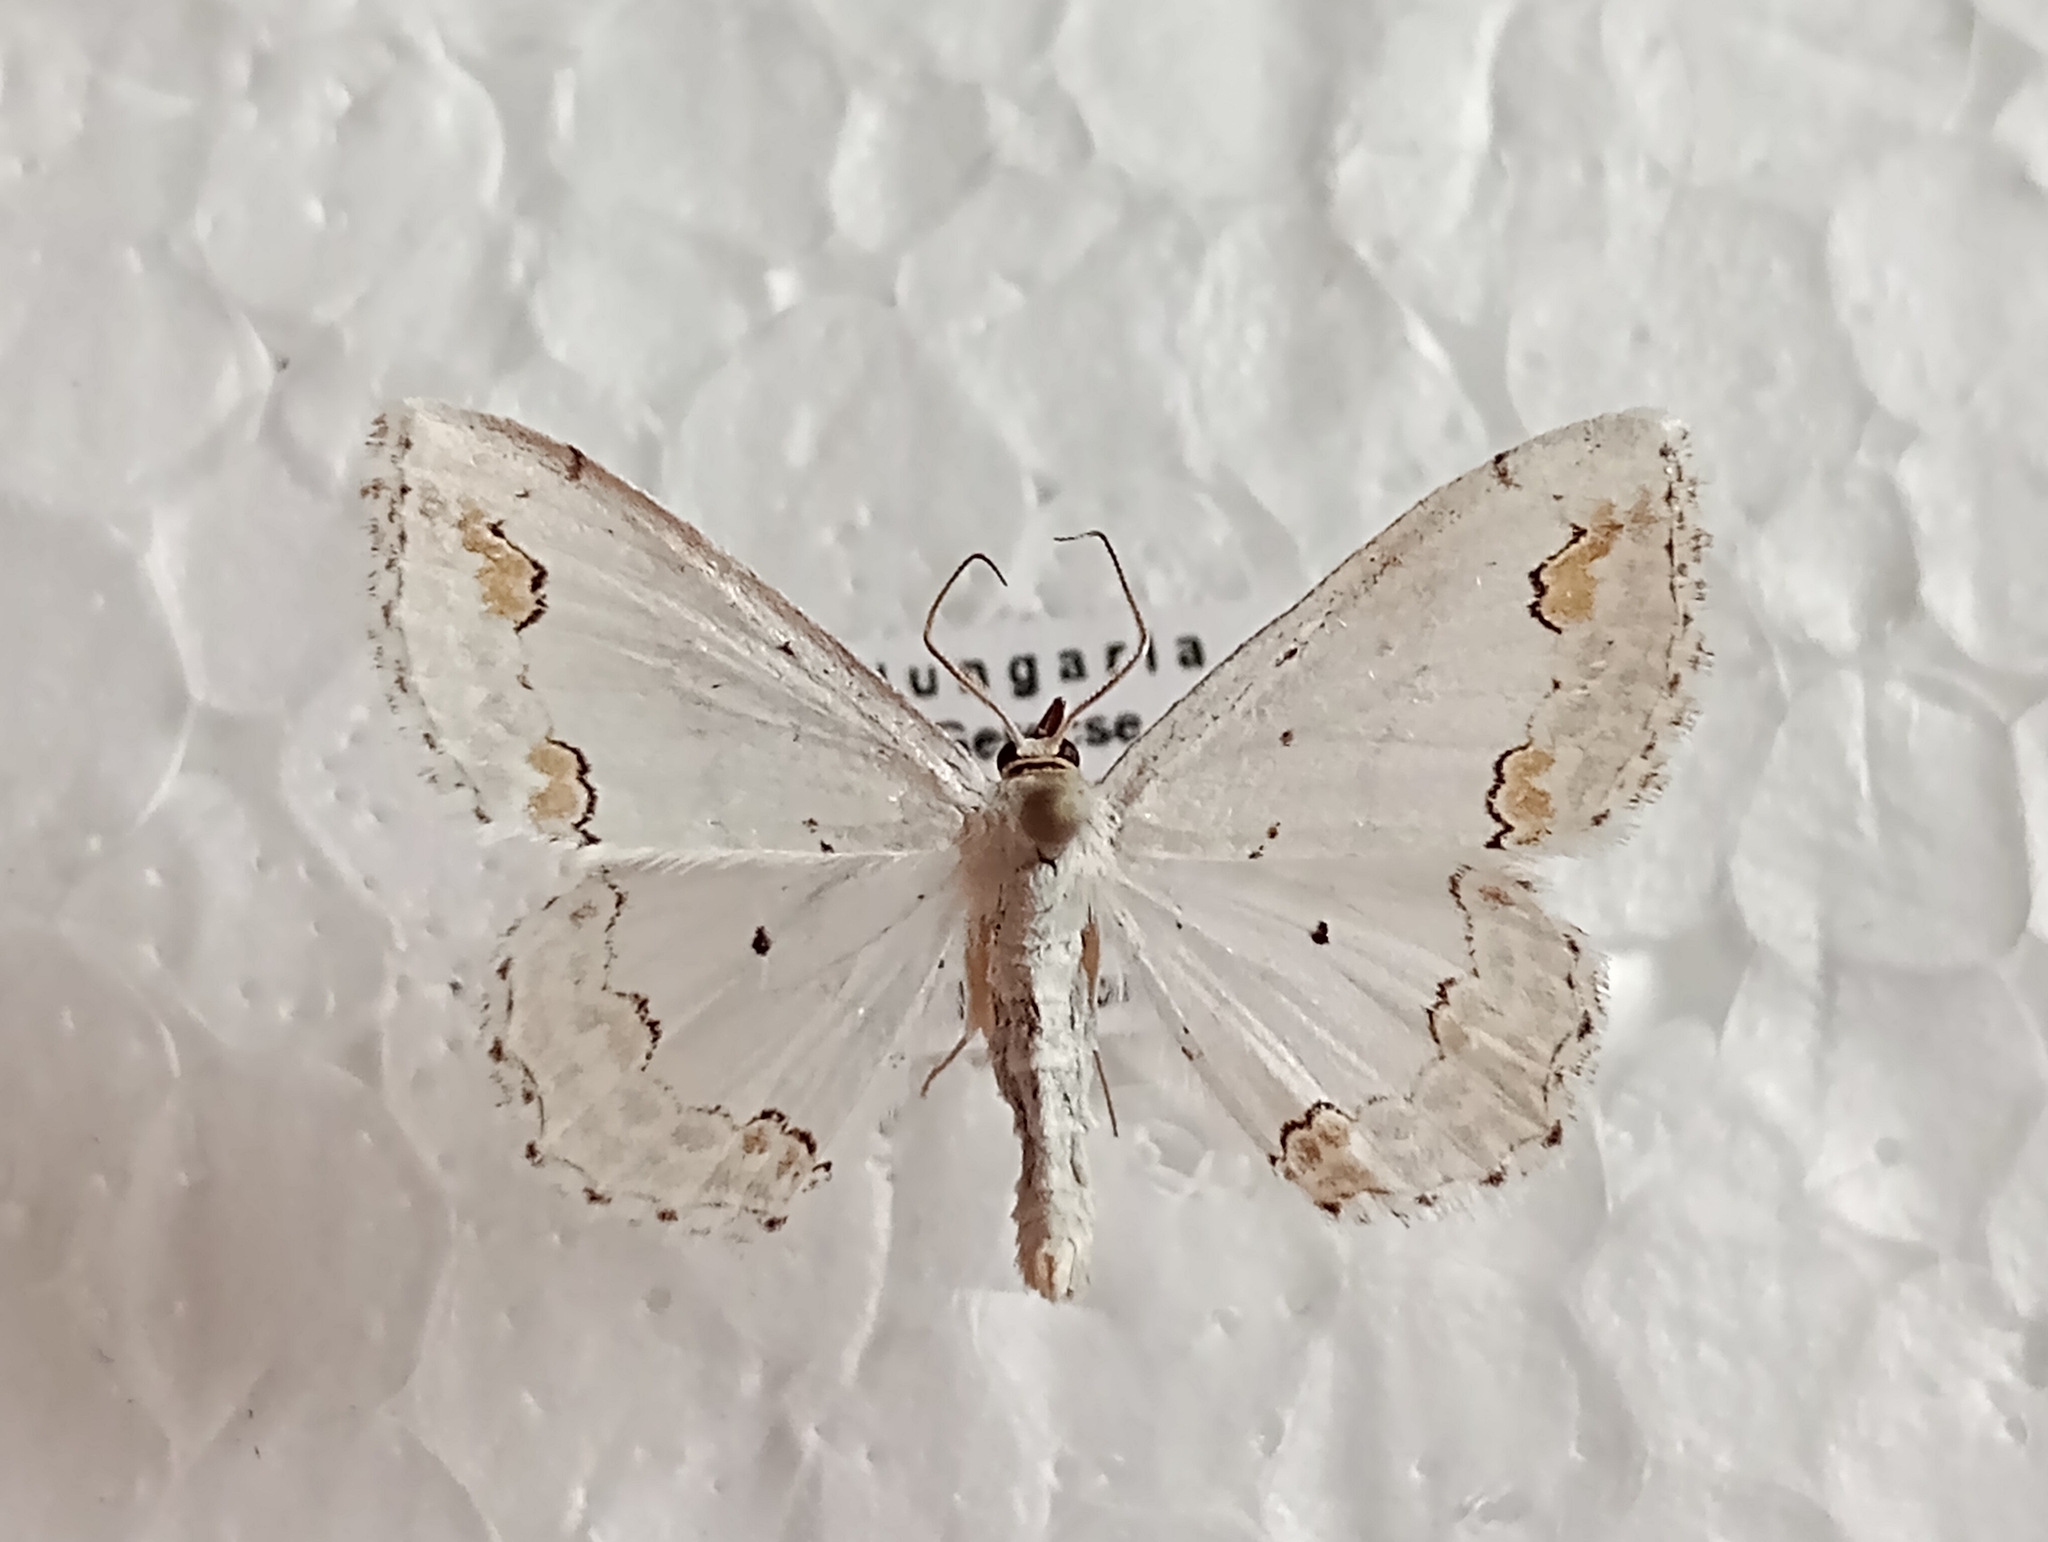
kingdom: Animalia
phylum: Arthropoda
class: Insecta
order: Lepidoptera
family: Geometridae
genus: Scopula
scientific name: Scopula ornata
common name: Lace border
